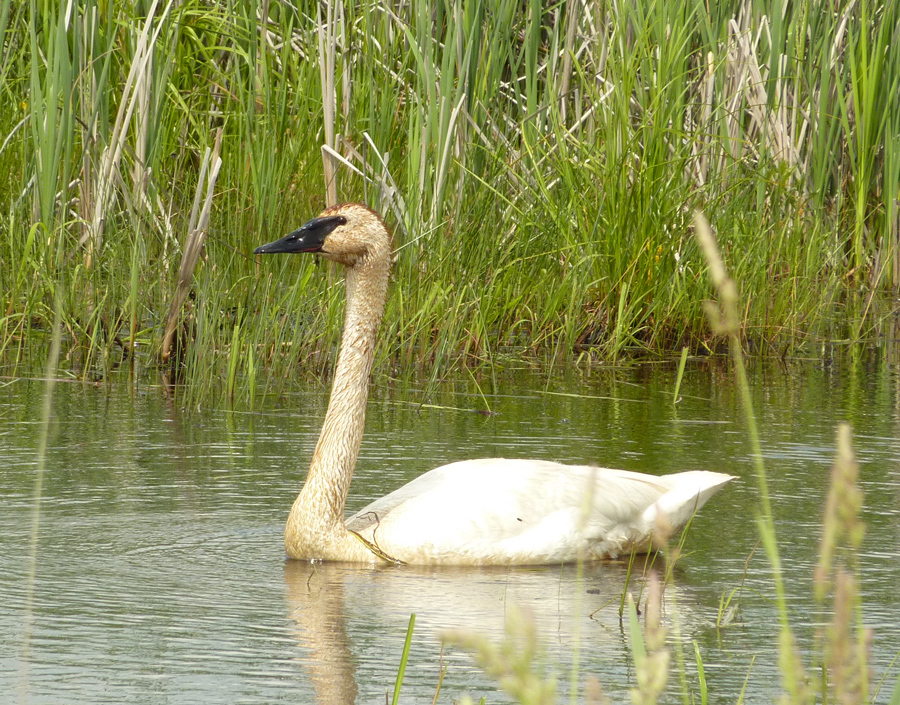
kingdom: Animalia
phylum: Chordata
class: Aves
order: Anseriformes
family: Anatidae
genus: Cygnus
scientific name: Cygnus buccinator
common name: Trumpeter swan
